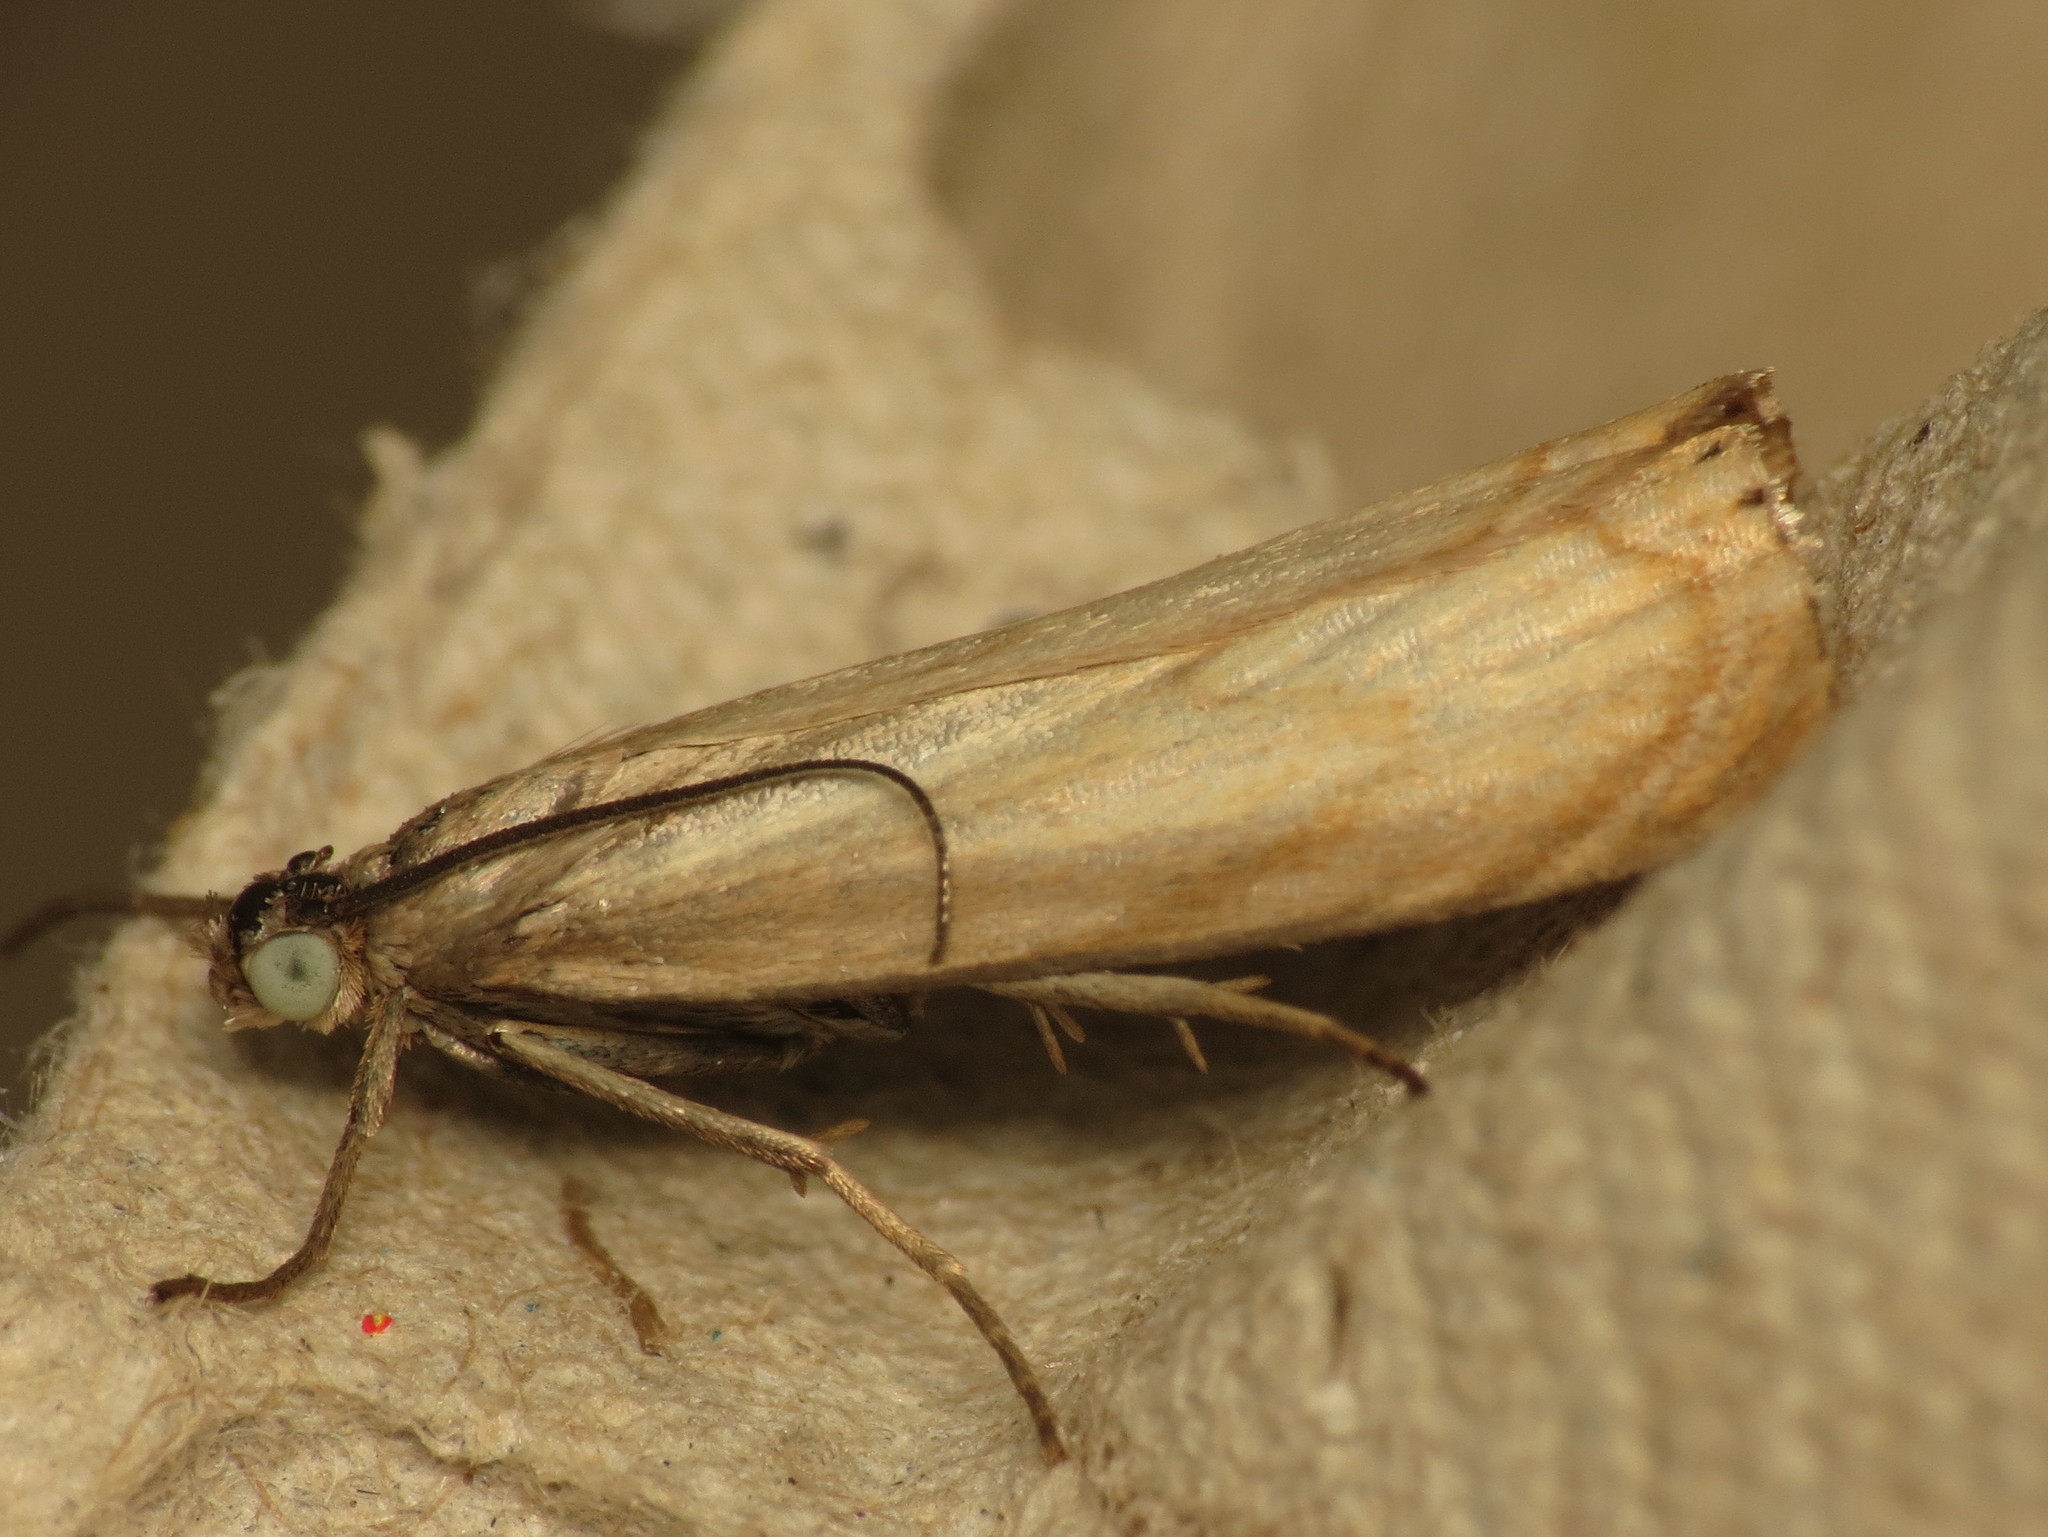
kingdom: Animalia
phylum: Arthropoda
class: Insecta
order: Lepidoptera
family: Crambidae
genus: Chrysoteuchia
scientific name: Chrysoteuchia culmella
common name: Garden grass-veneer
